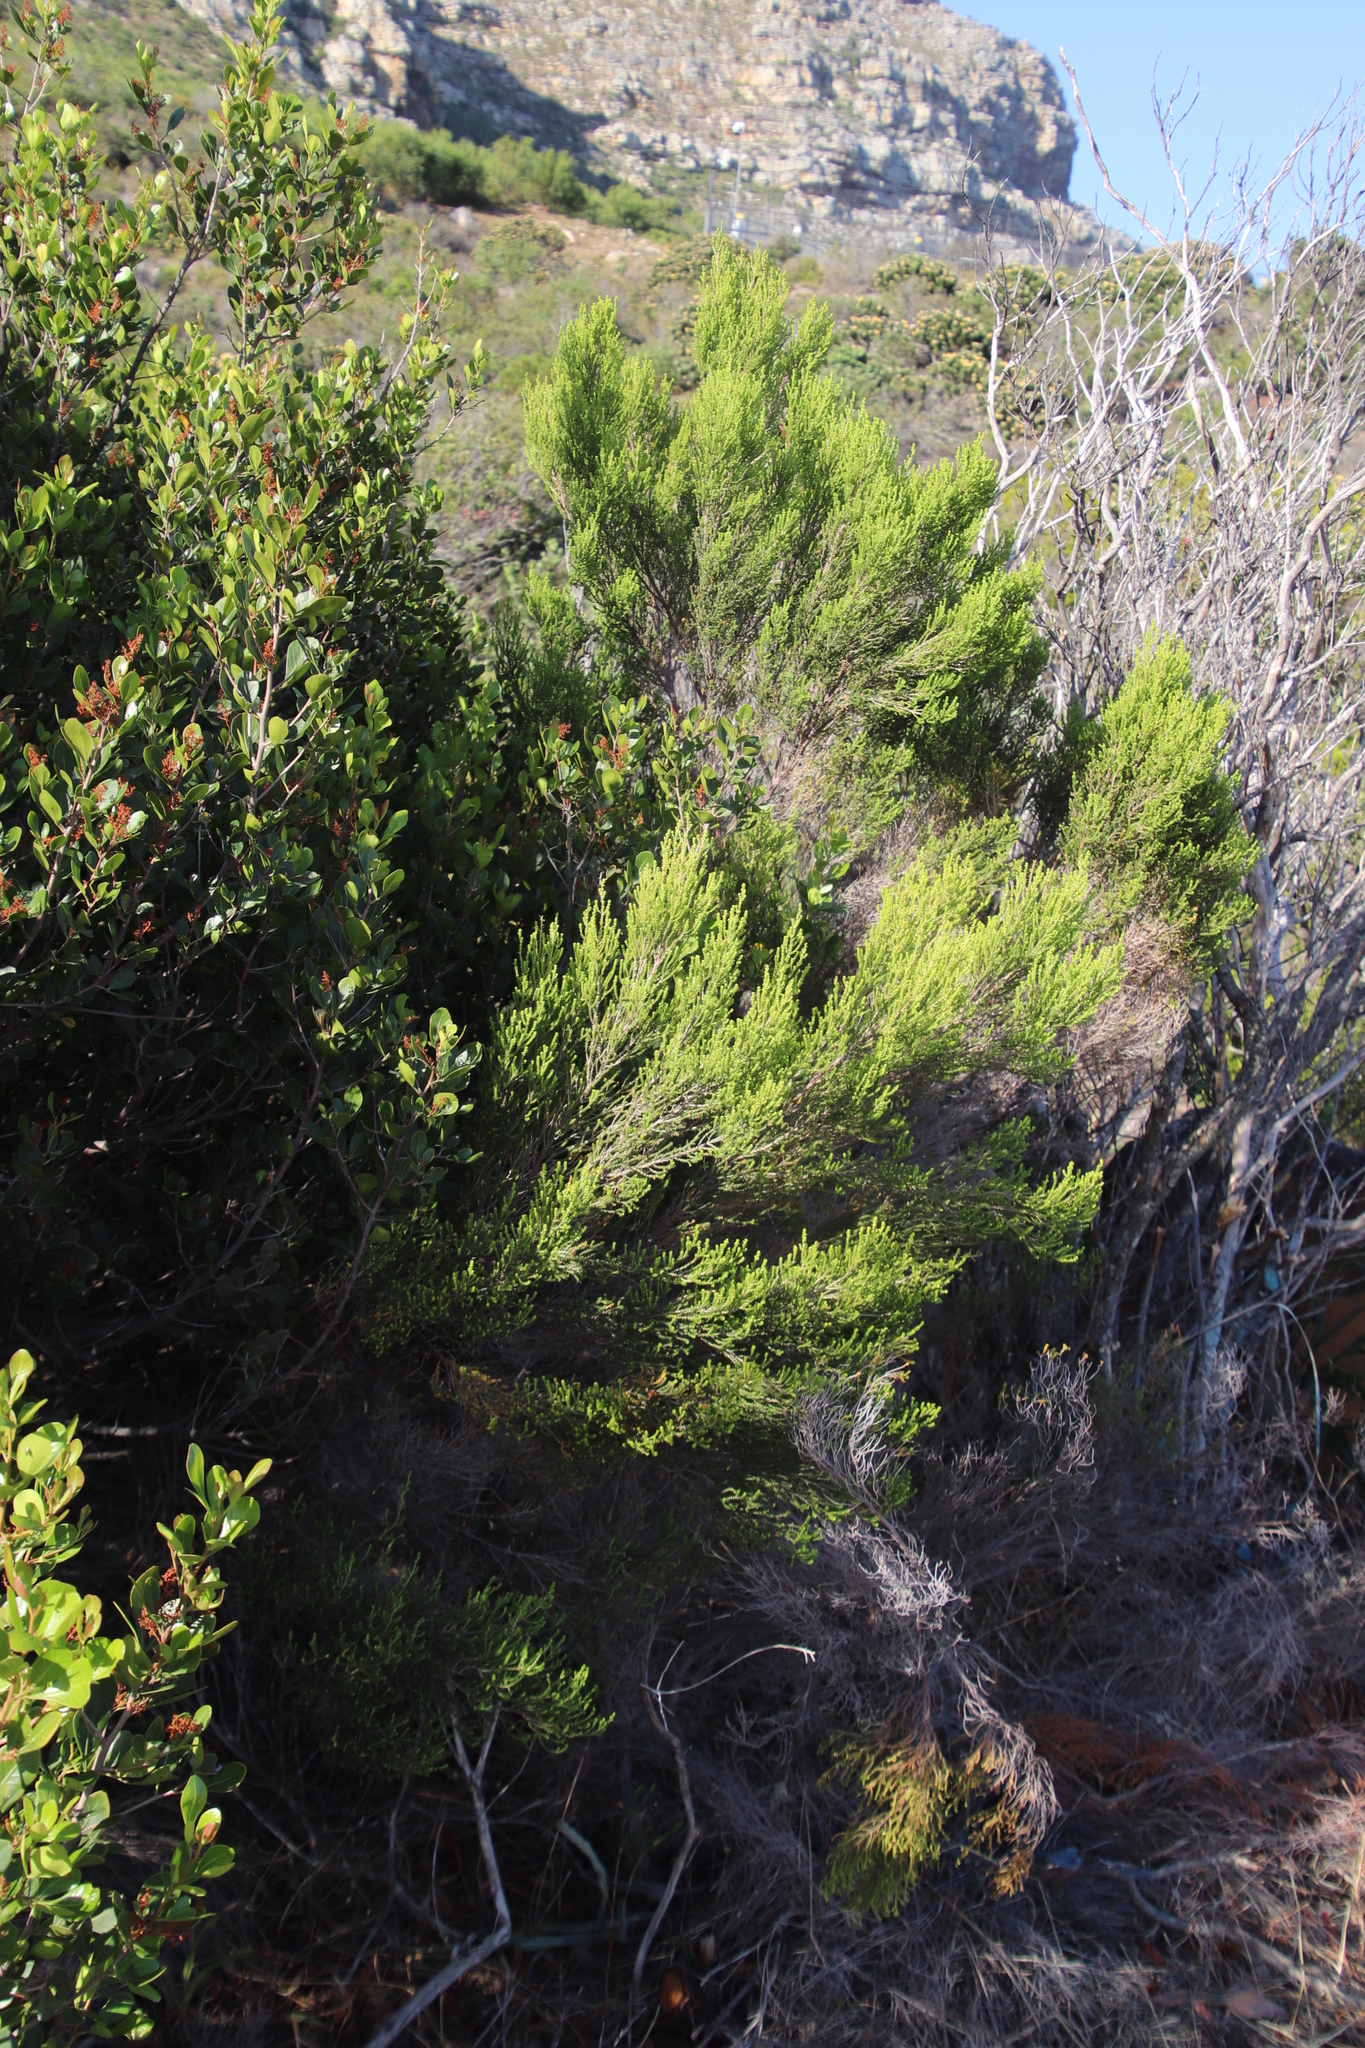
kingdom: Plantae
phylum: Tracheophyta
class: Magnoliopsida
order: Ericales
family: Ericaceae
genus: Erica
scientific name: Erica tristis
